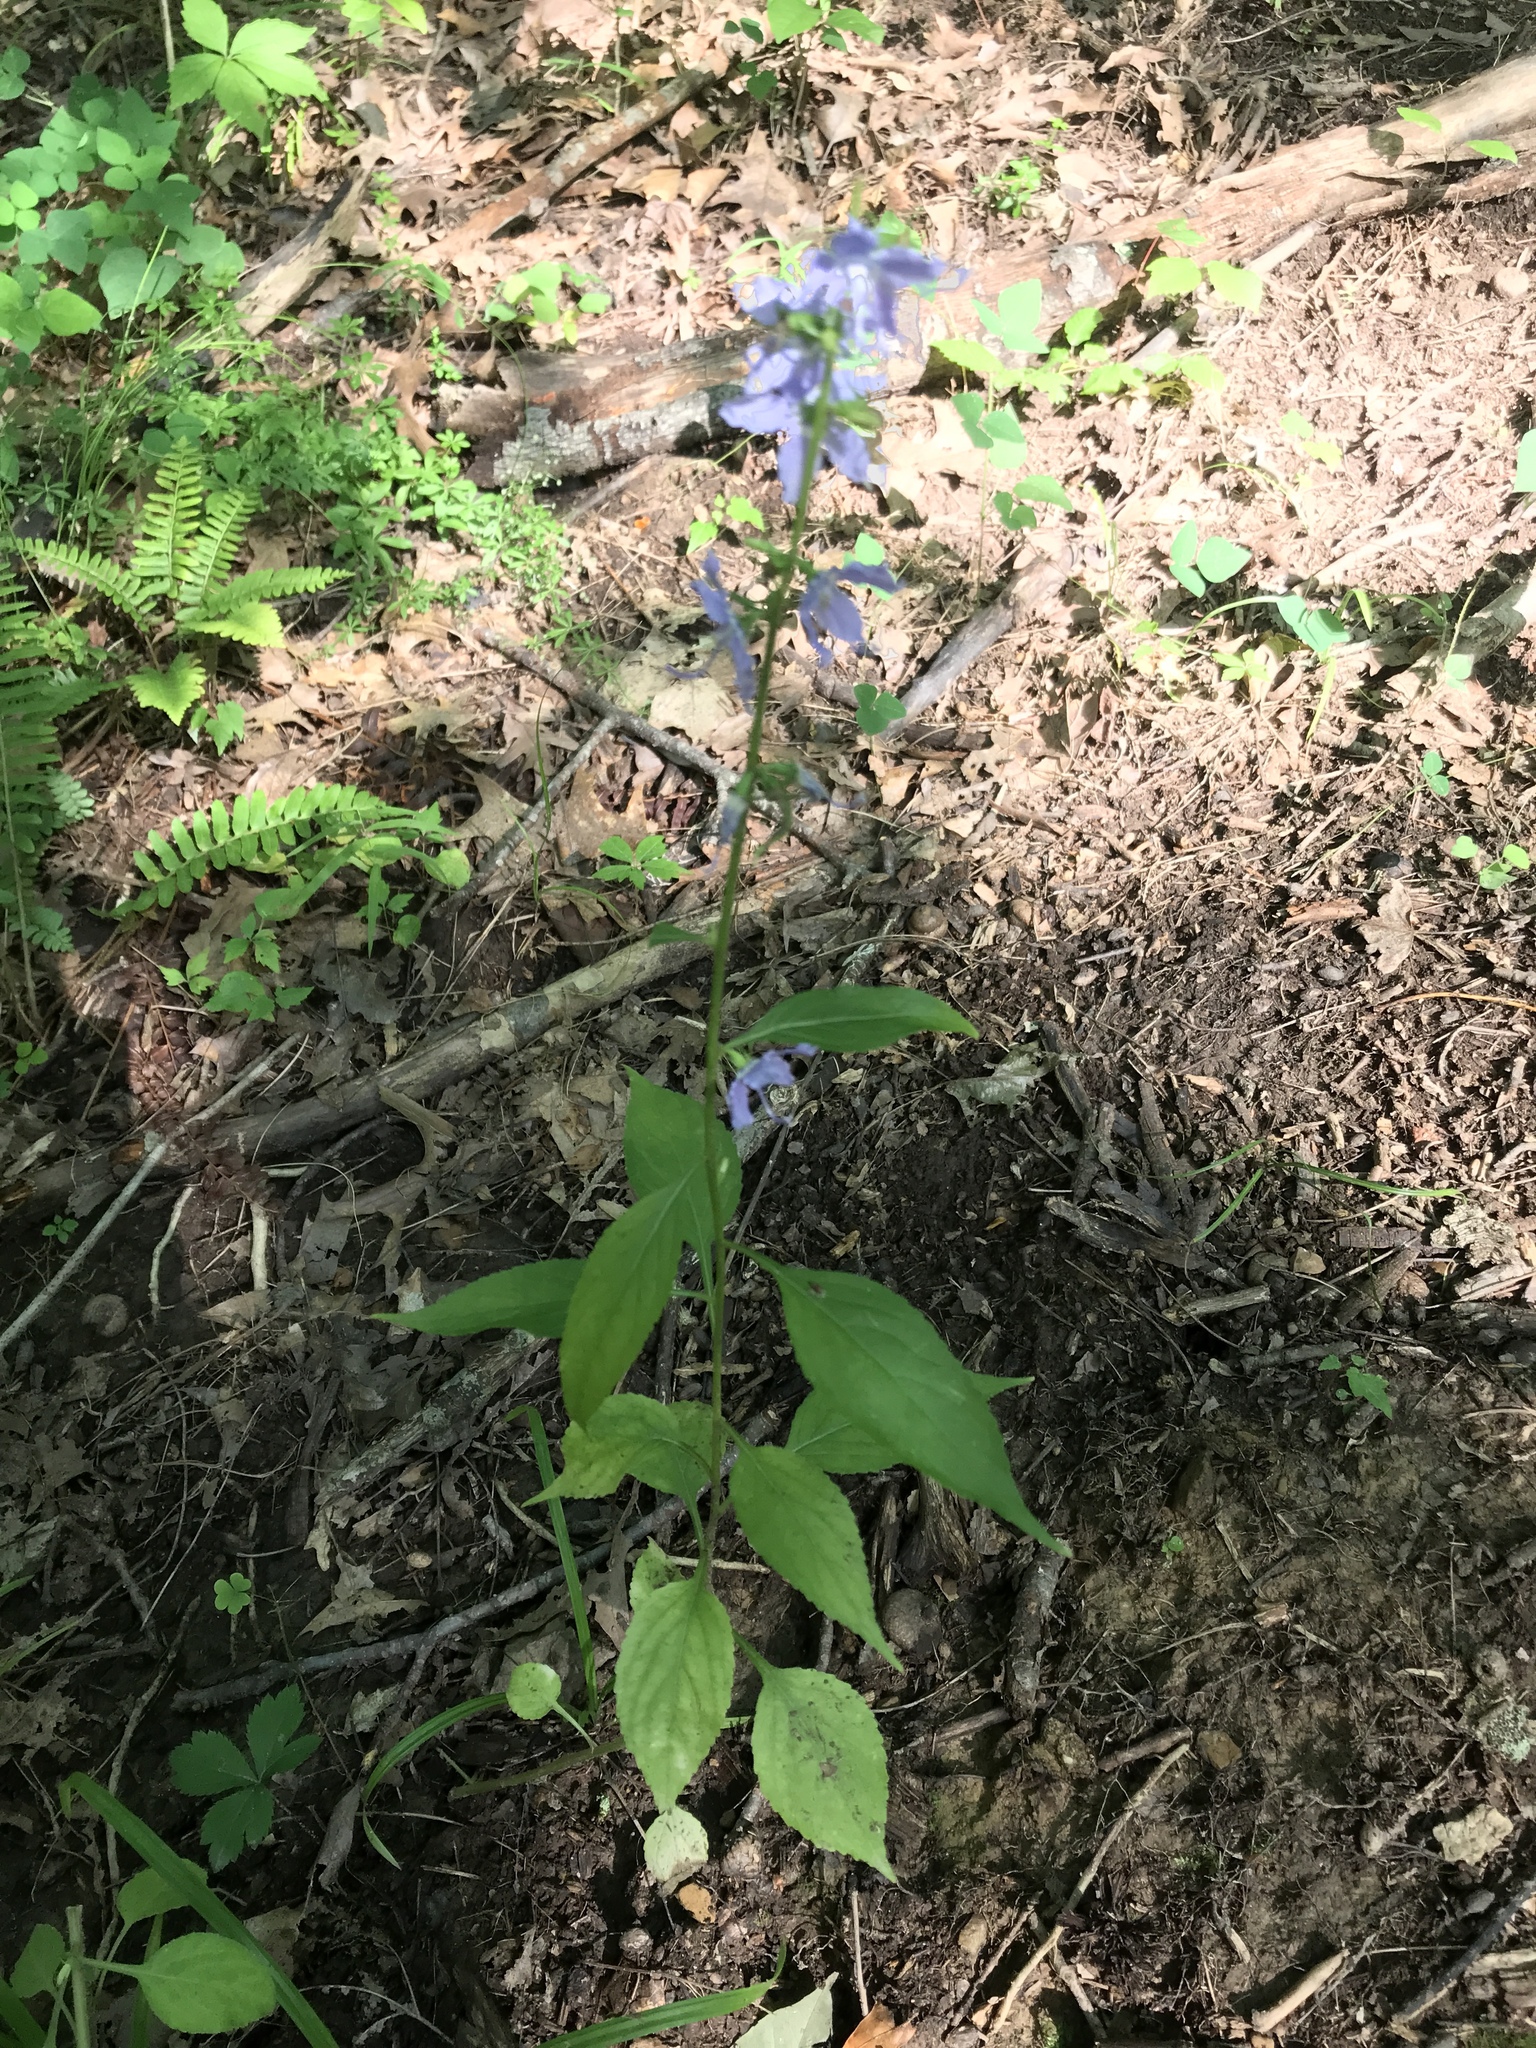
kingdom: Plantae
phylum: Tracheophyta
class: Magnoliopsida
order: Asterales
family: Campanulaceae
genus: Campanulastrum
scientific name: Campanulastrum americanum
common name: American bellflower
